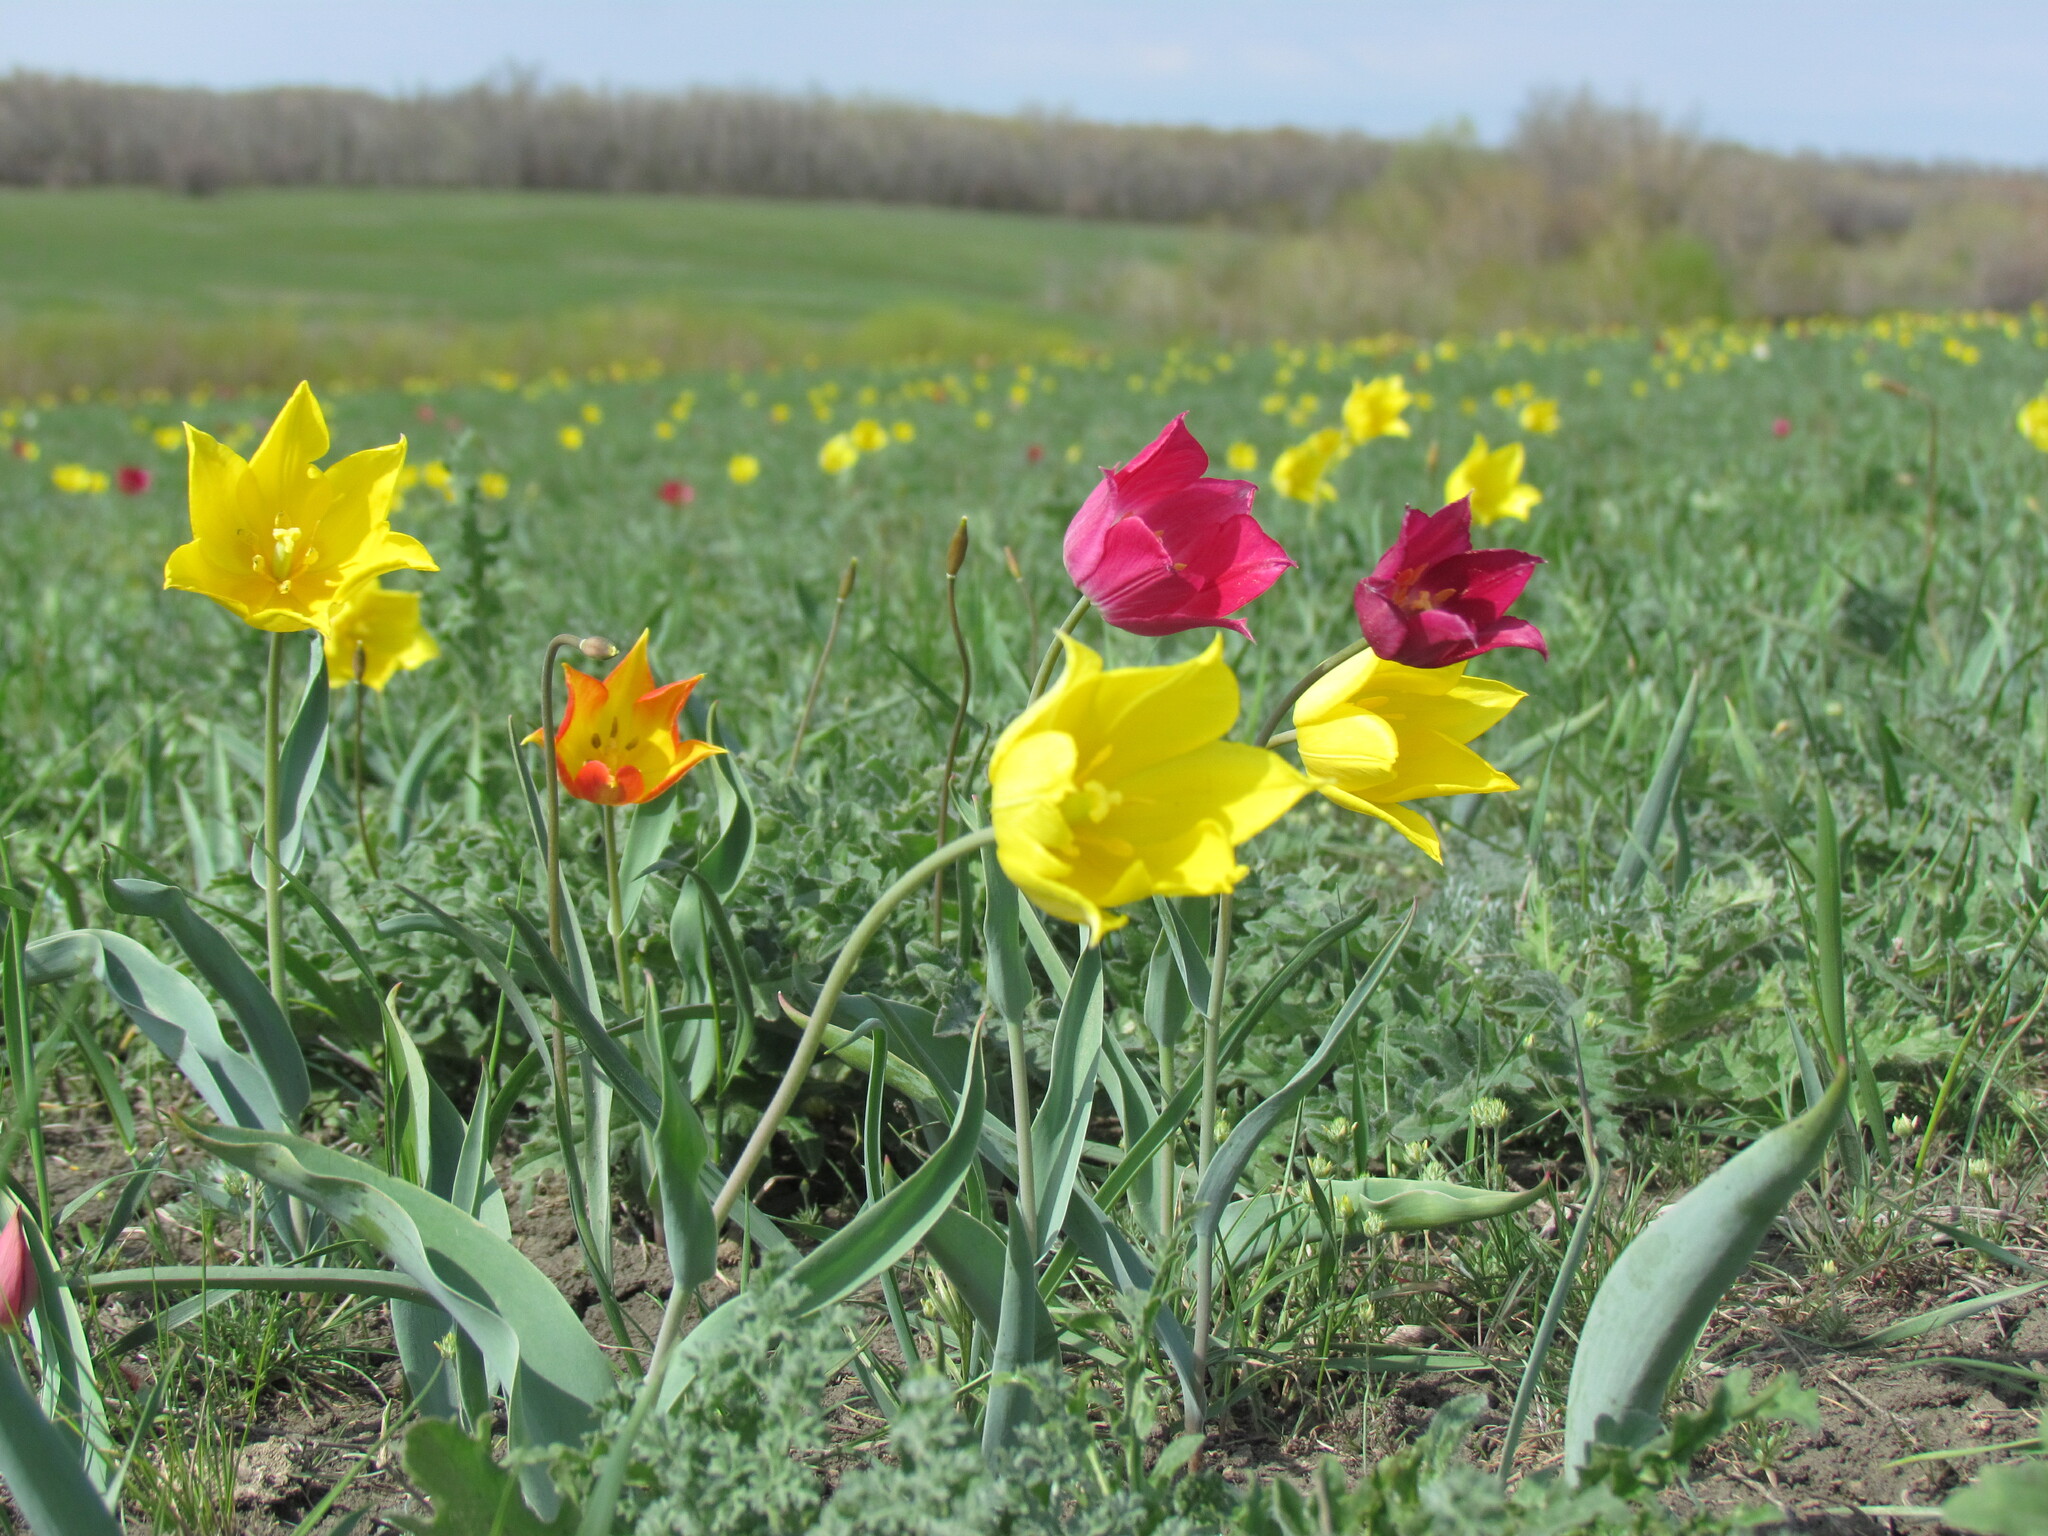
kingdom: Plantae
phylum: Tracheophyta
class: Liliopsida
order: Liliales
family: Liliaceae
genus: Tulipa
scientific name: Tulipa suaveolens
